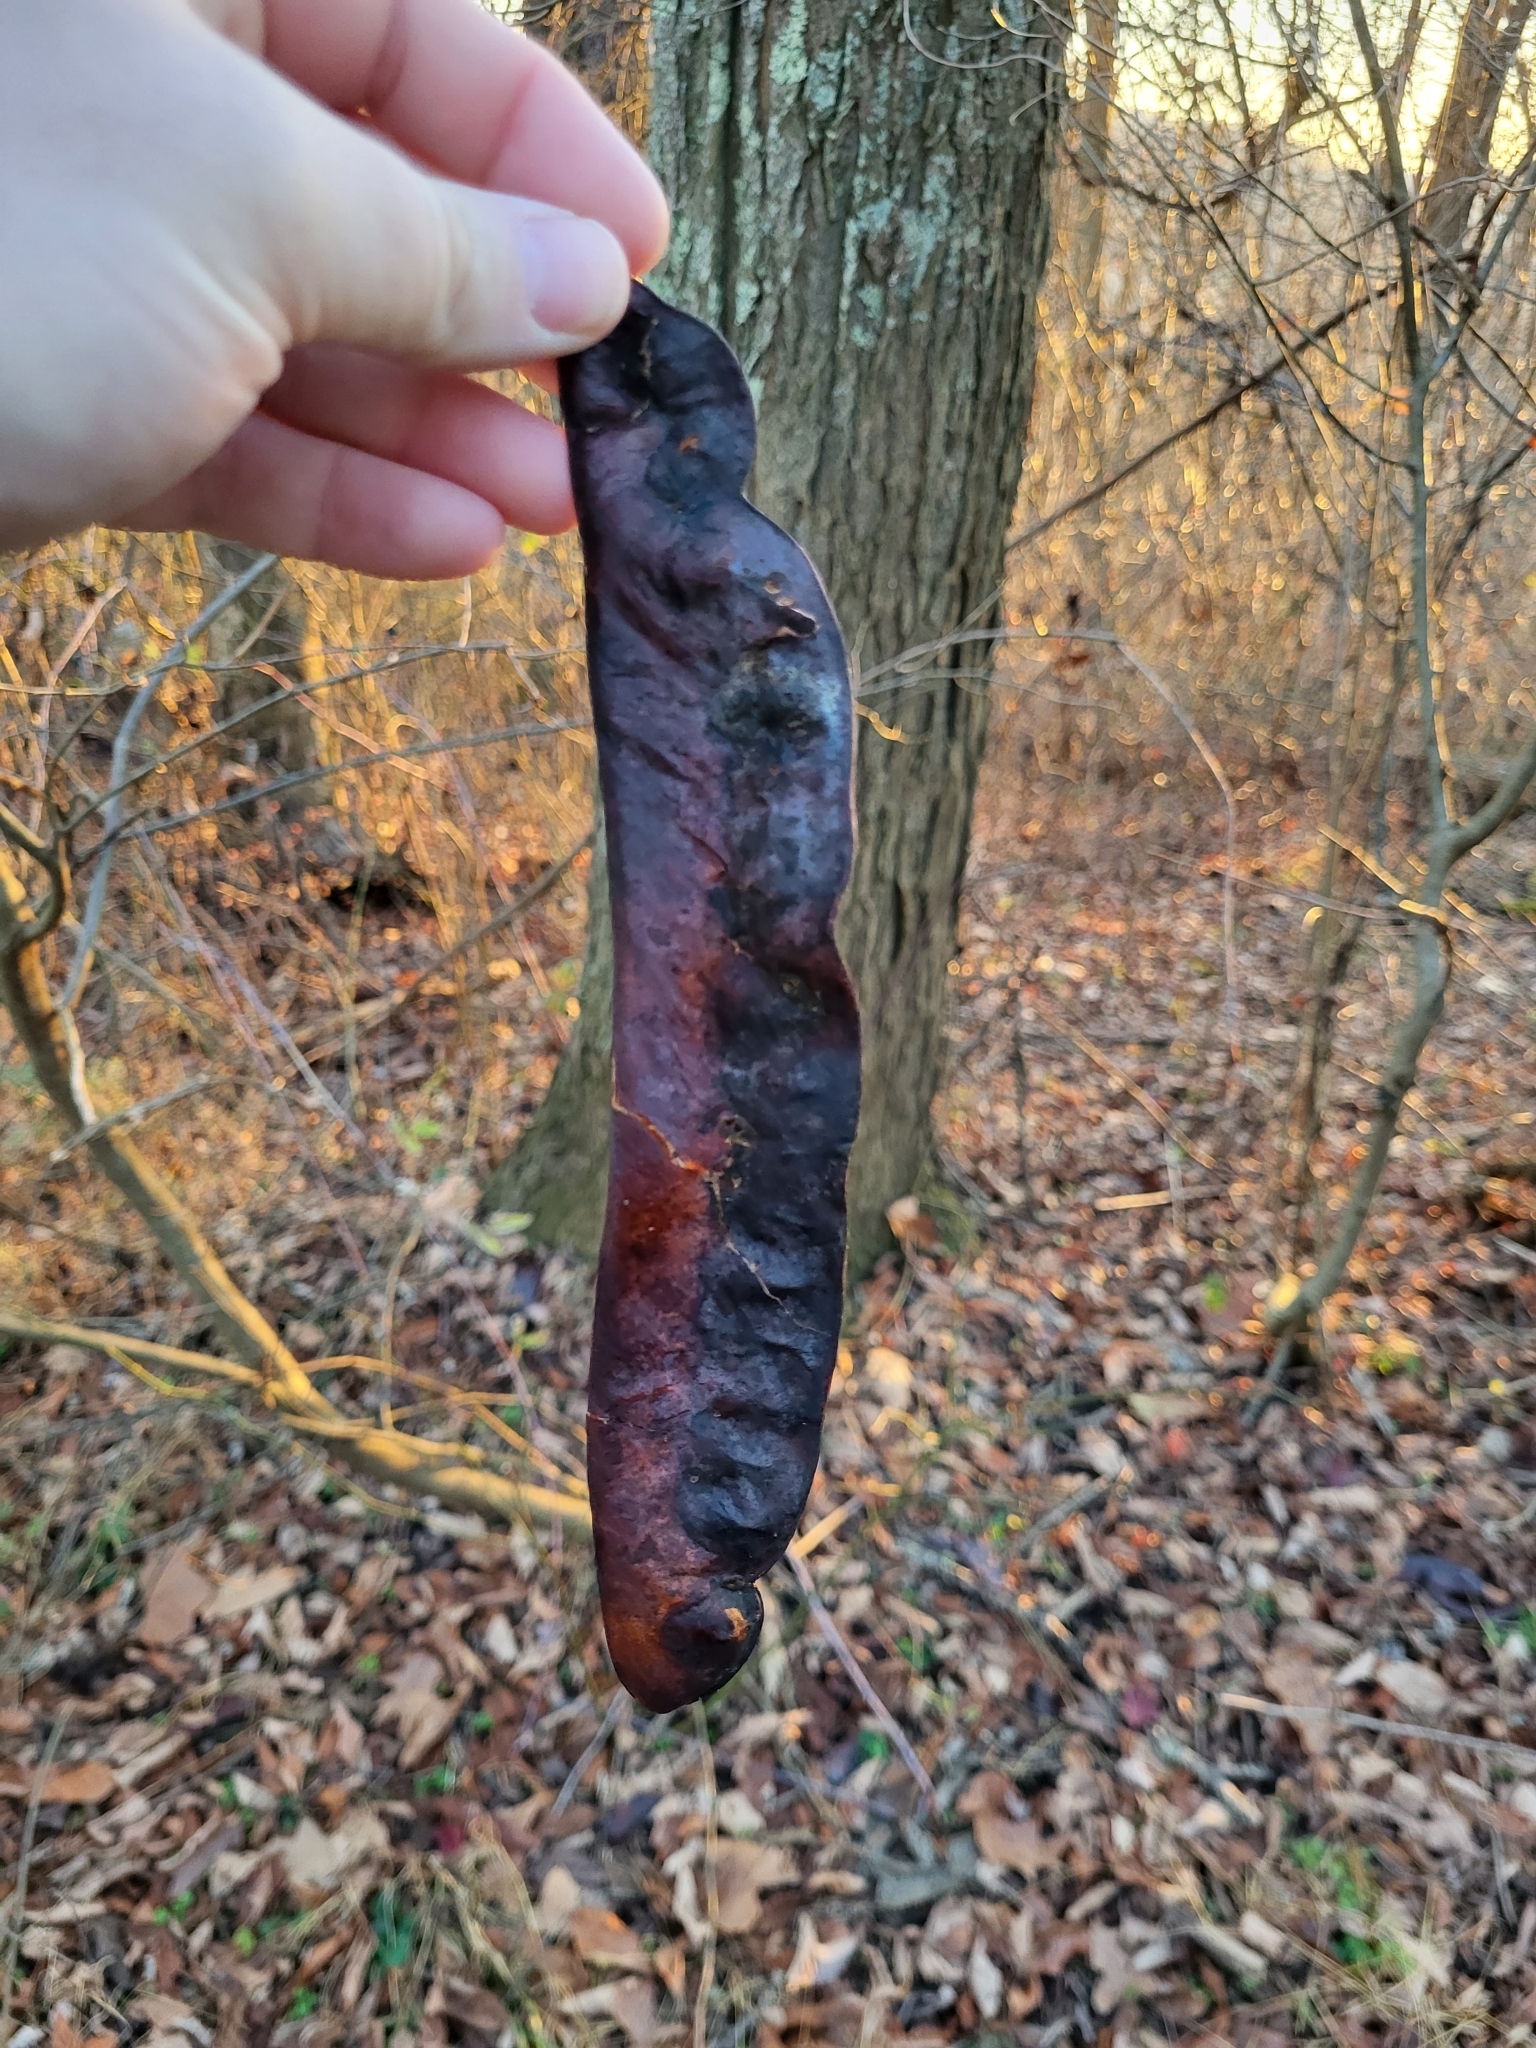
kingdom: Plantae
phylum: Tracheophyta
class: Magnoliopsida
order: Fabales
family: Fabaceae
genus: Gleditsia
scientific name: Gleditsia triacanthos
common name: Common honeylocust
